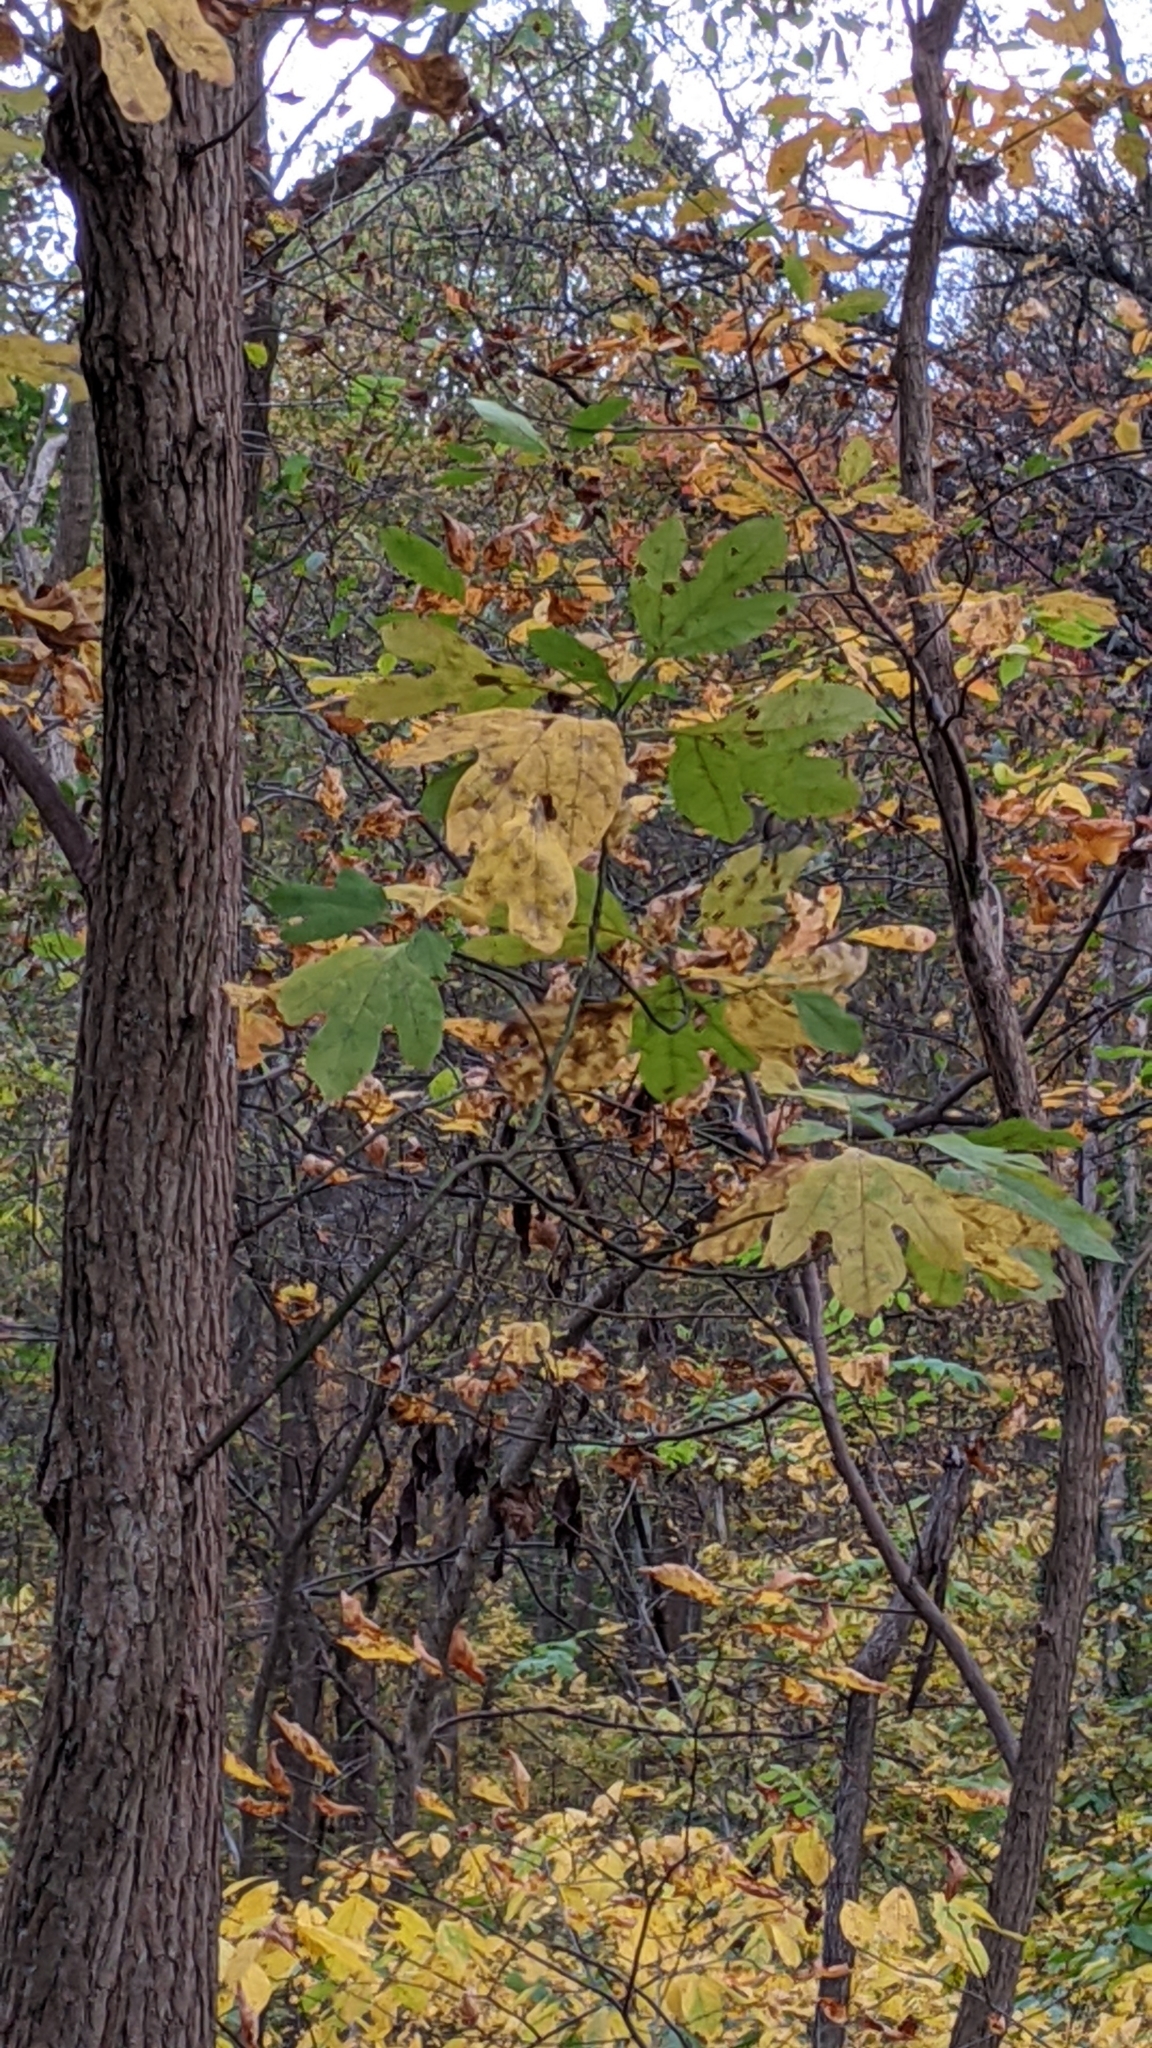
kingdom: Plantae
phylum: Tracheophyta
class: Magnoliopsida
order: Laurales
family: Lauraceae
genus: Sassafras
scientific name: Sassafras albidum
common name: Sassafras
